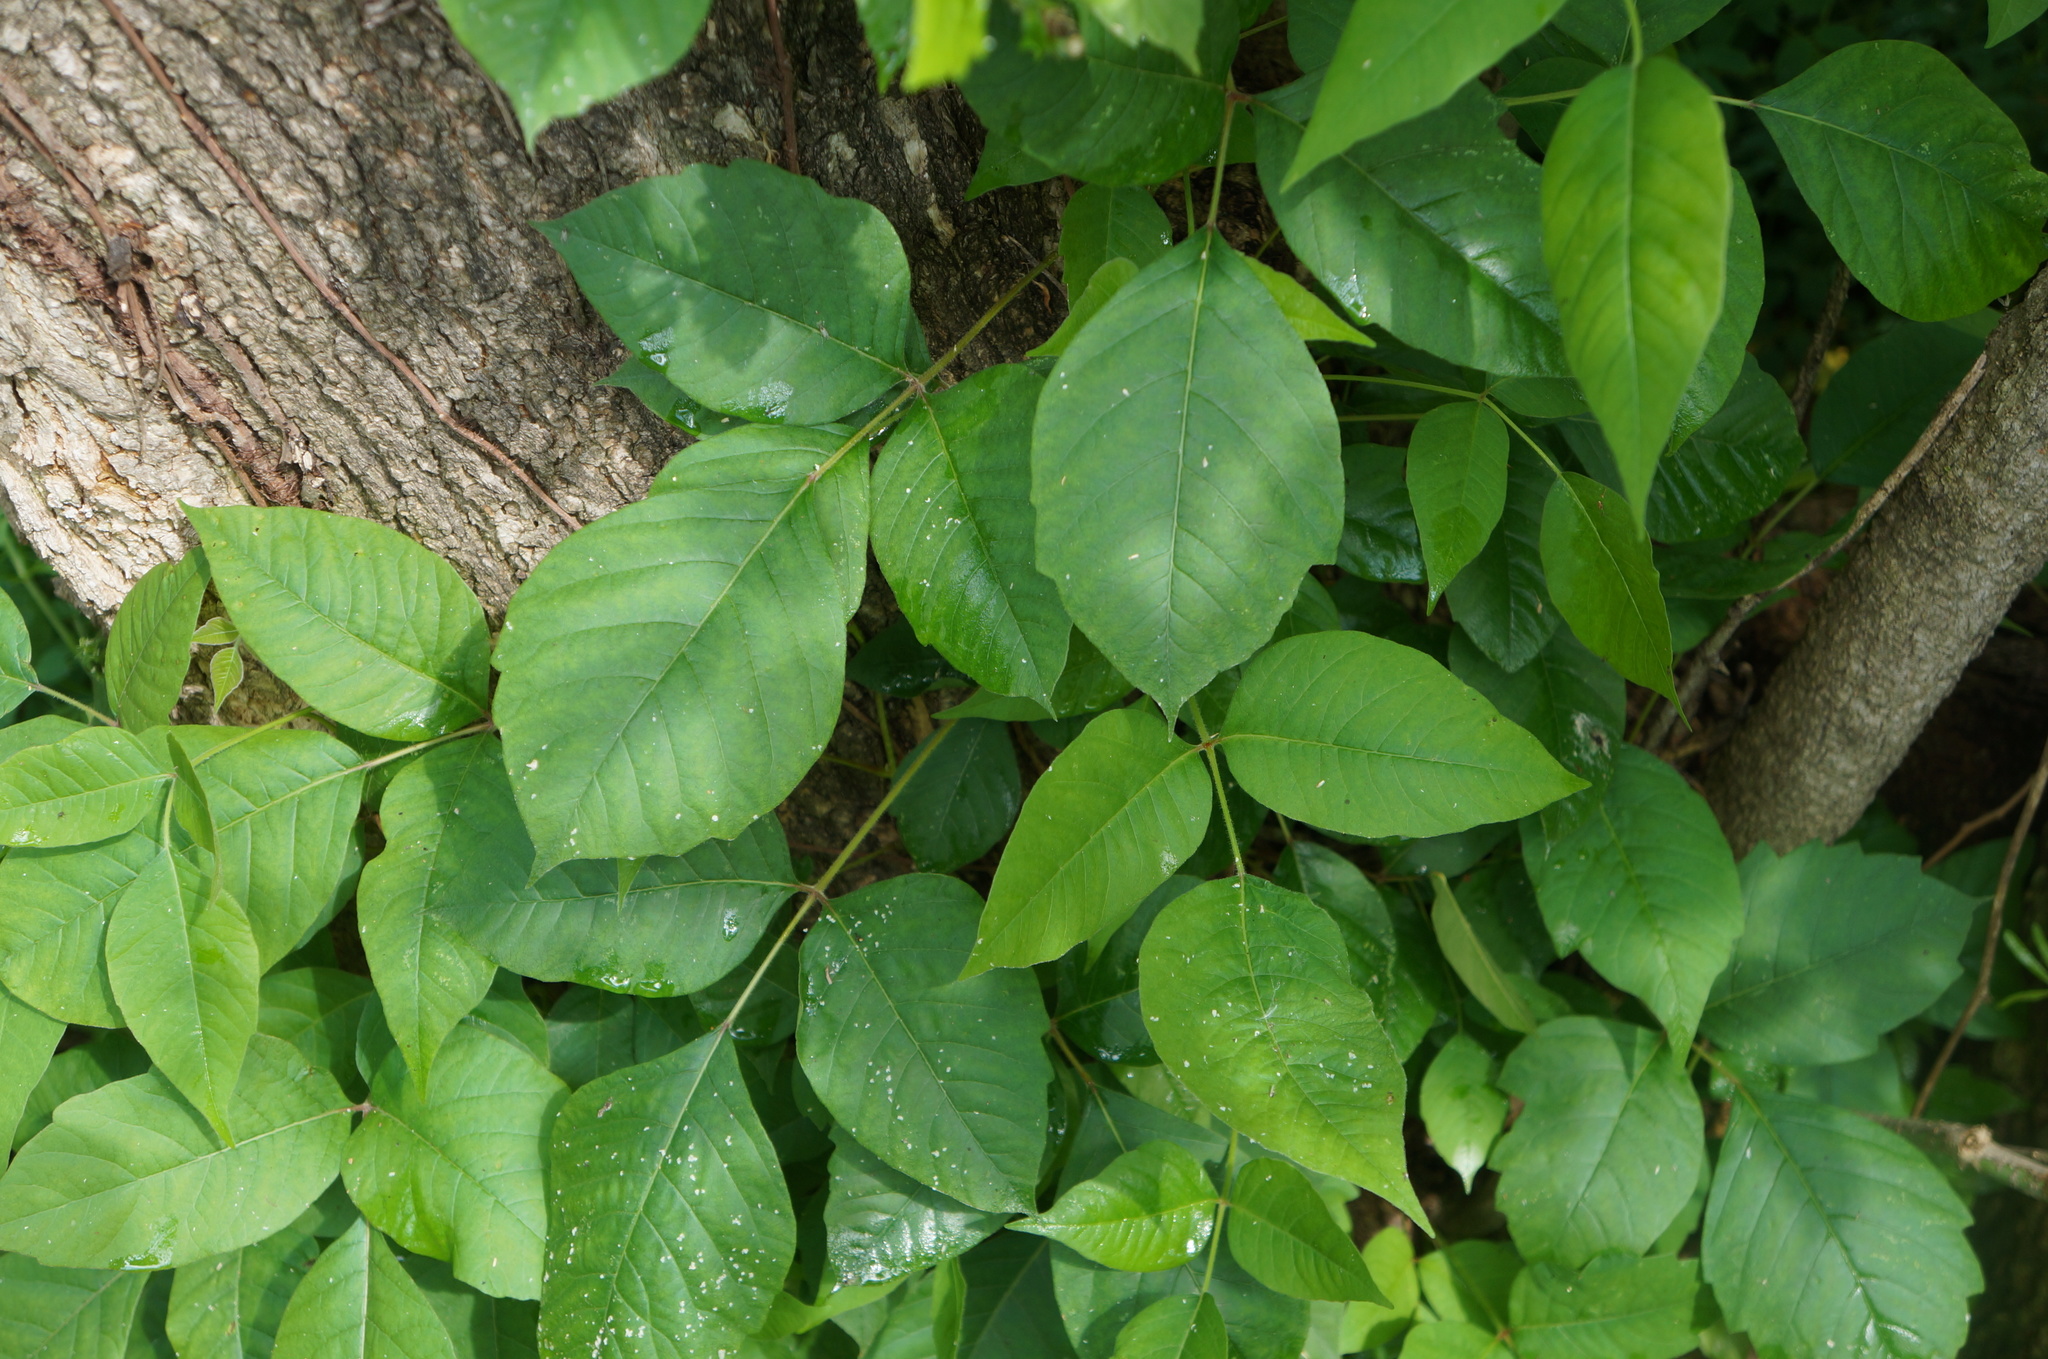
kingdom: Plantae
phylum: Tracheophyta
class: Magnoliopsida
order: Sapindales
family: Anacardiaceae
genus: Toxicodendron
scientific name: Toxicodendron radicans
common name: Poison ivy
